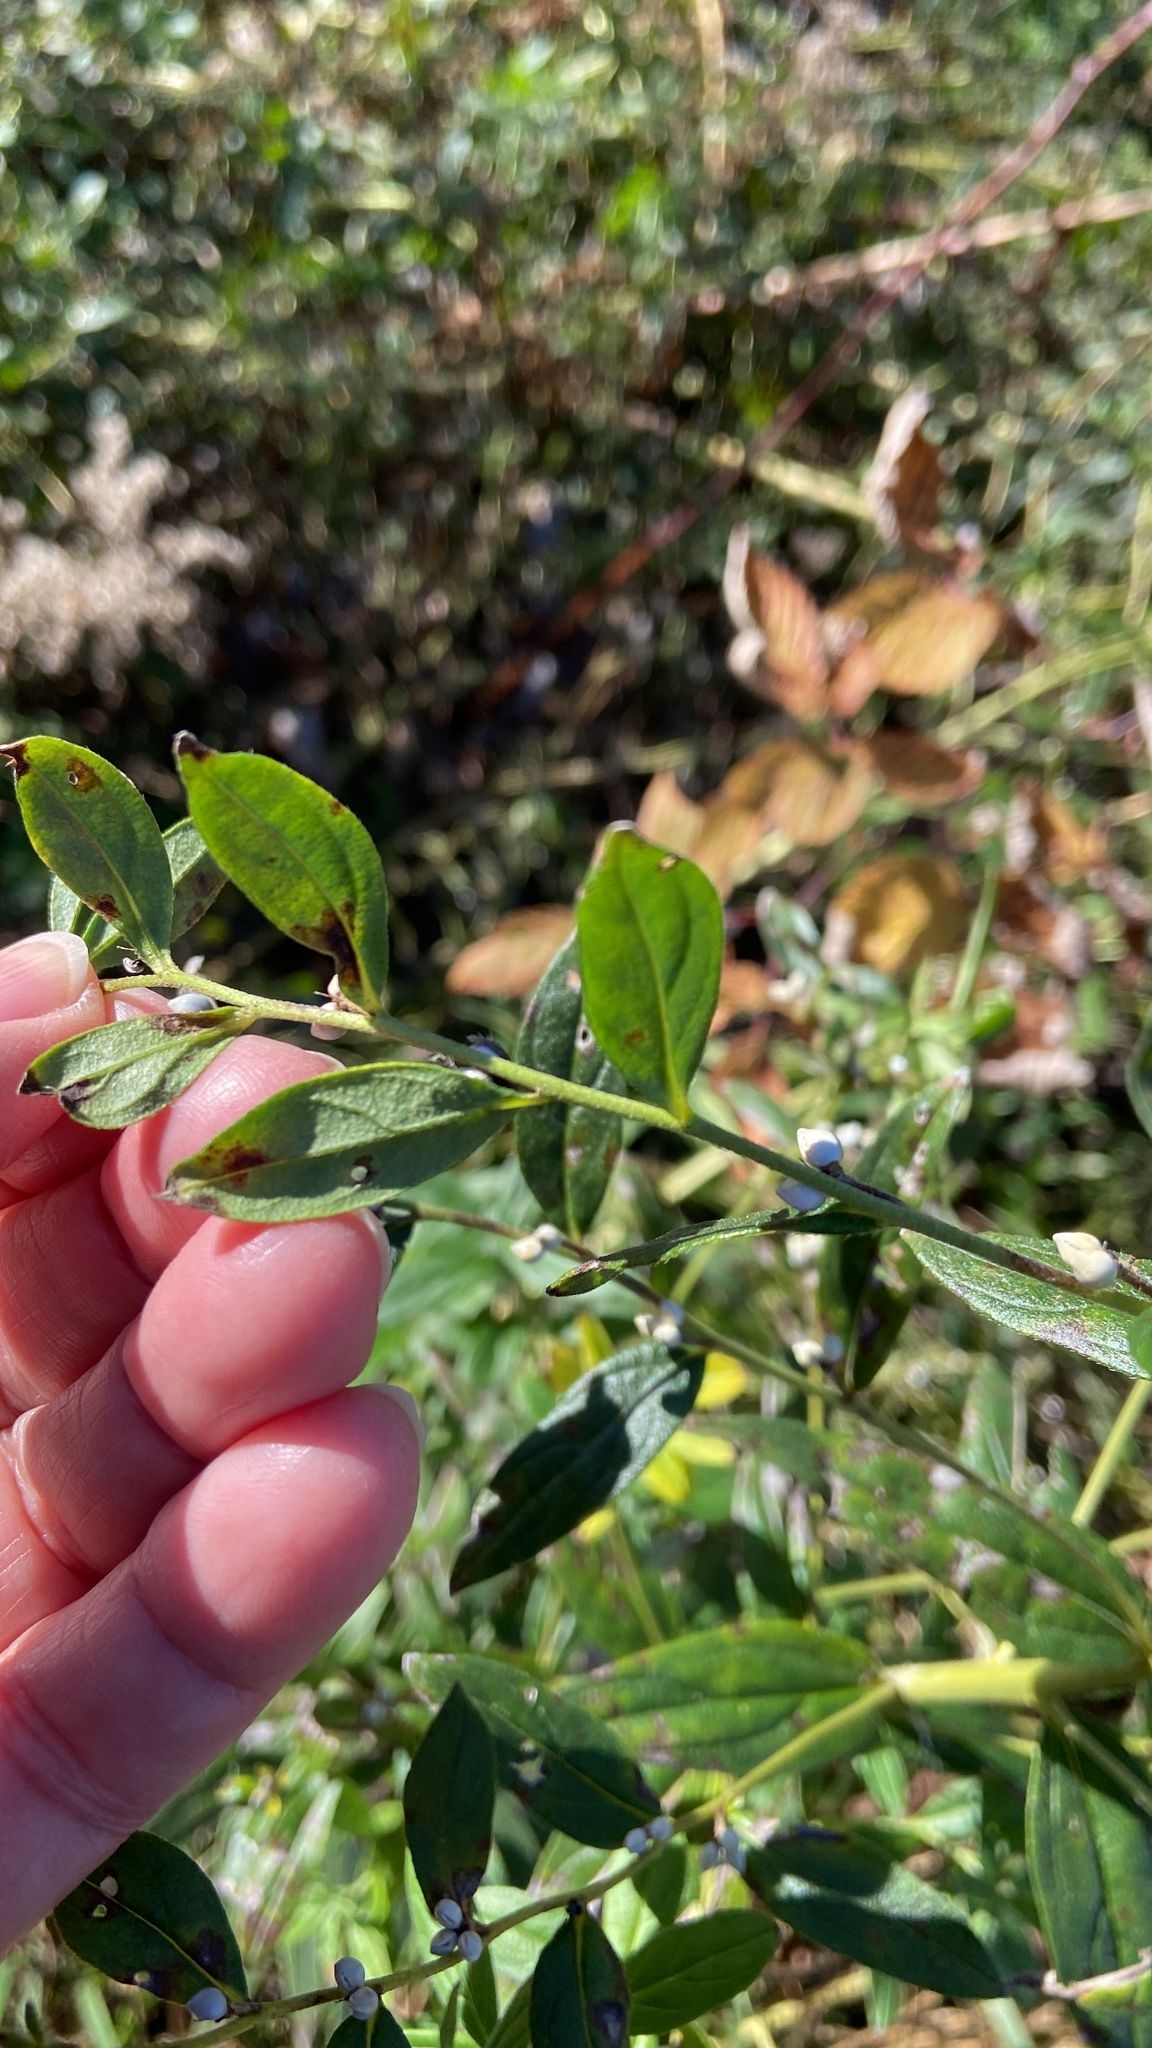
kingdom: Plantae
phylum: Tracheophyta
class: Magnoliopsida
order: Boraginales
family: Boraginaceae
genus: Lithospermum
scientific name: Lithospermum officinale
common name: Common gromwell
